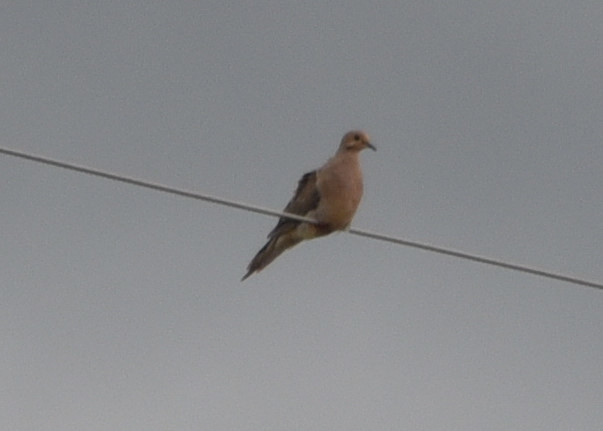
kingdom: Animalia
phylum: Chordata
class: Aves
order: Columbiformes
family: Columbidae
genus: Zenaida
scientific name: Zenaida macroura
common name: Mourning dove
